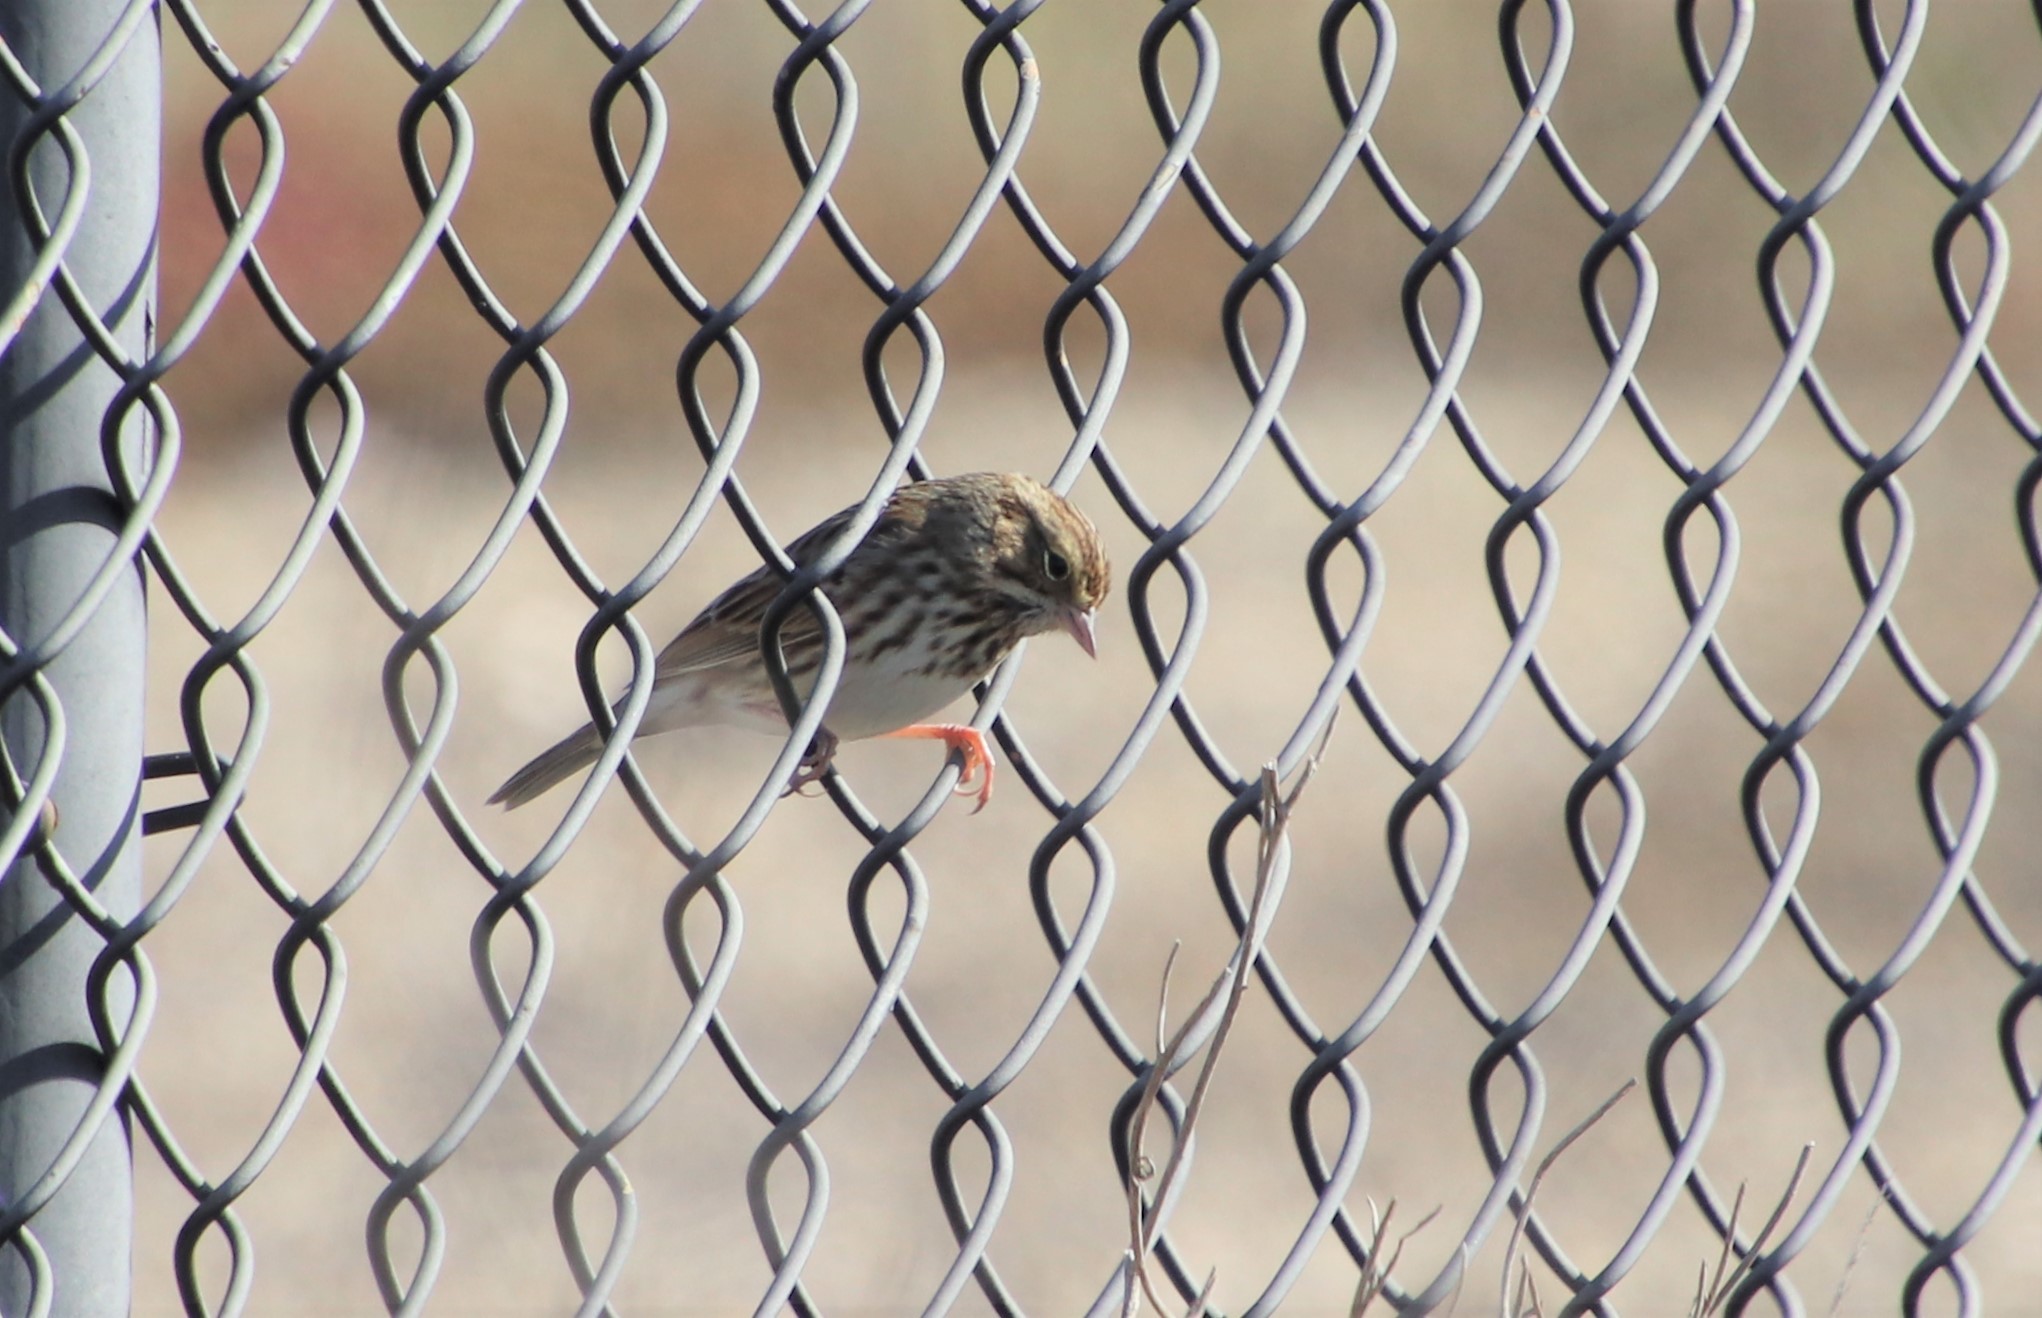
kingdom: Animalia
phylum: Chordata
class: Aves
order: Passeriformes
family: Passerellidae
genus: Passerculus
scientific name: Passerculus sandwichensis
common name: Savannah sparrow
